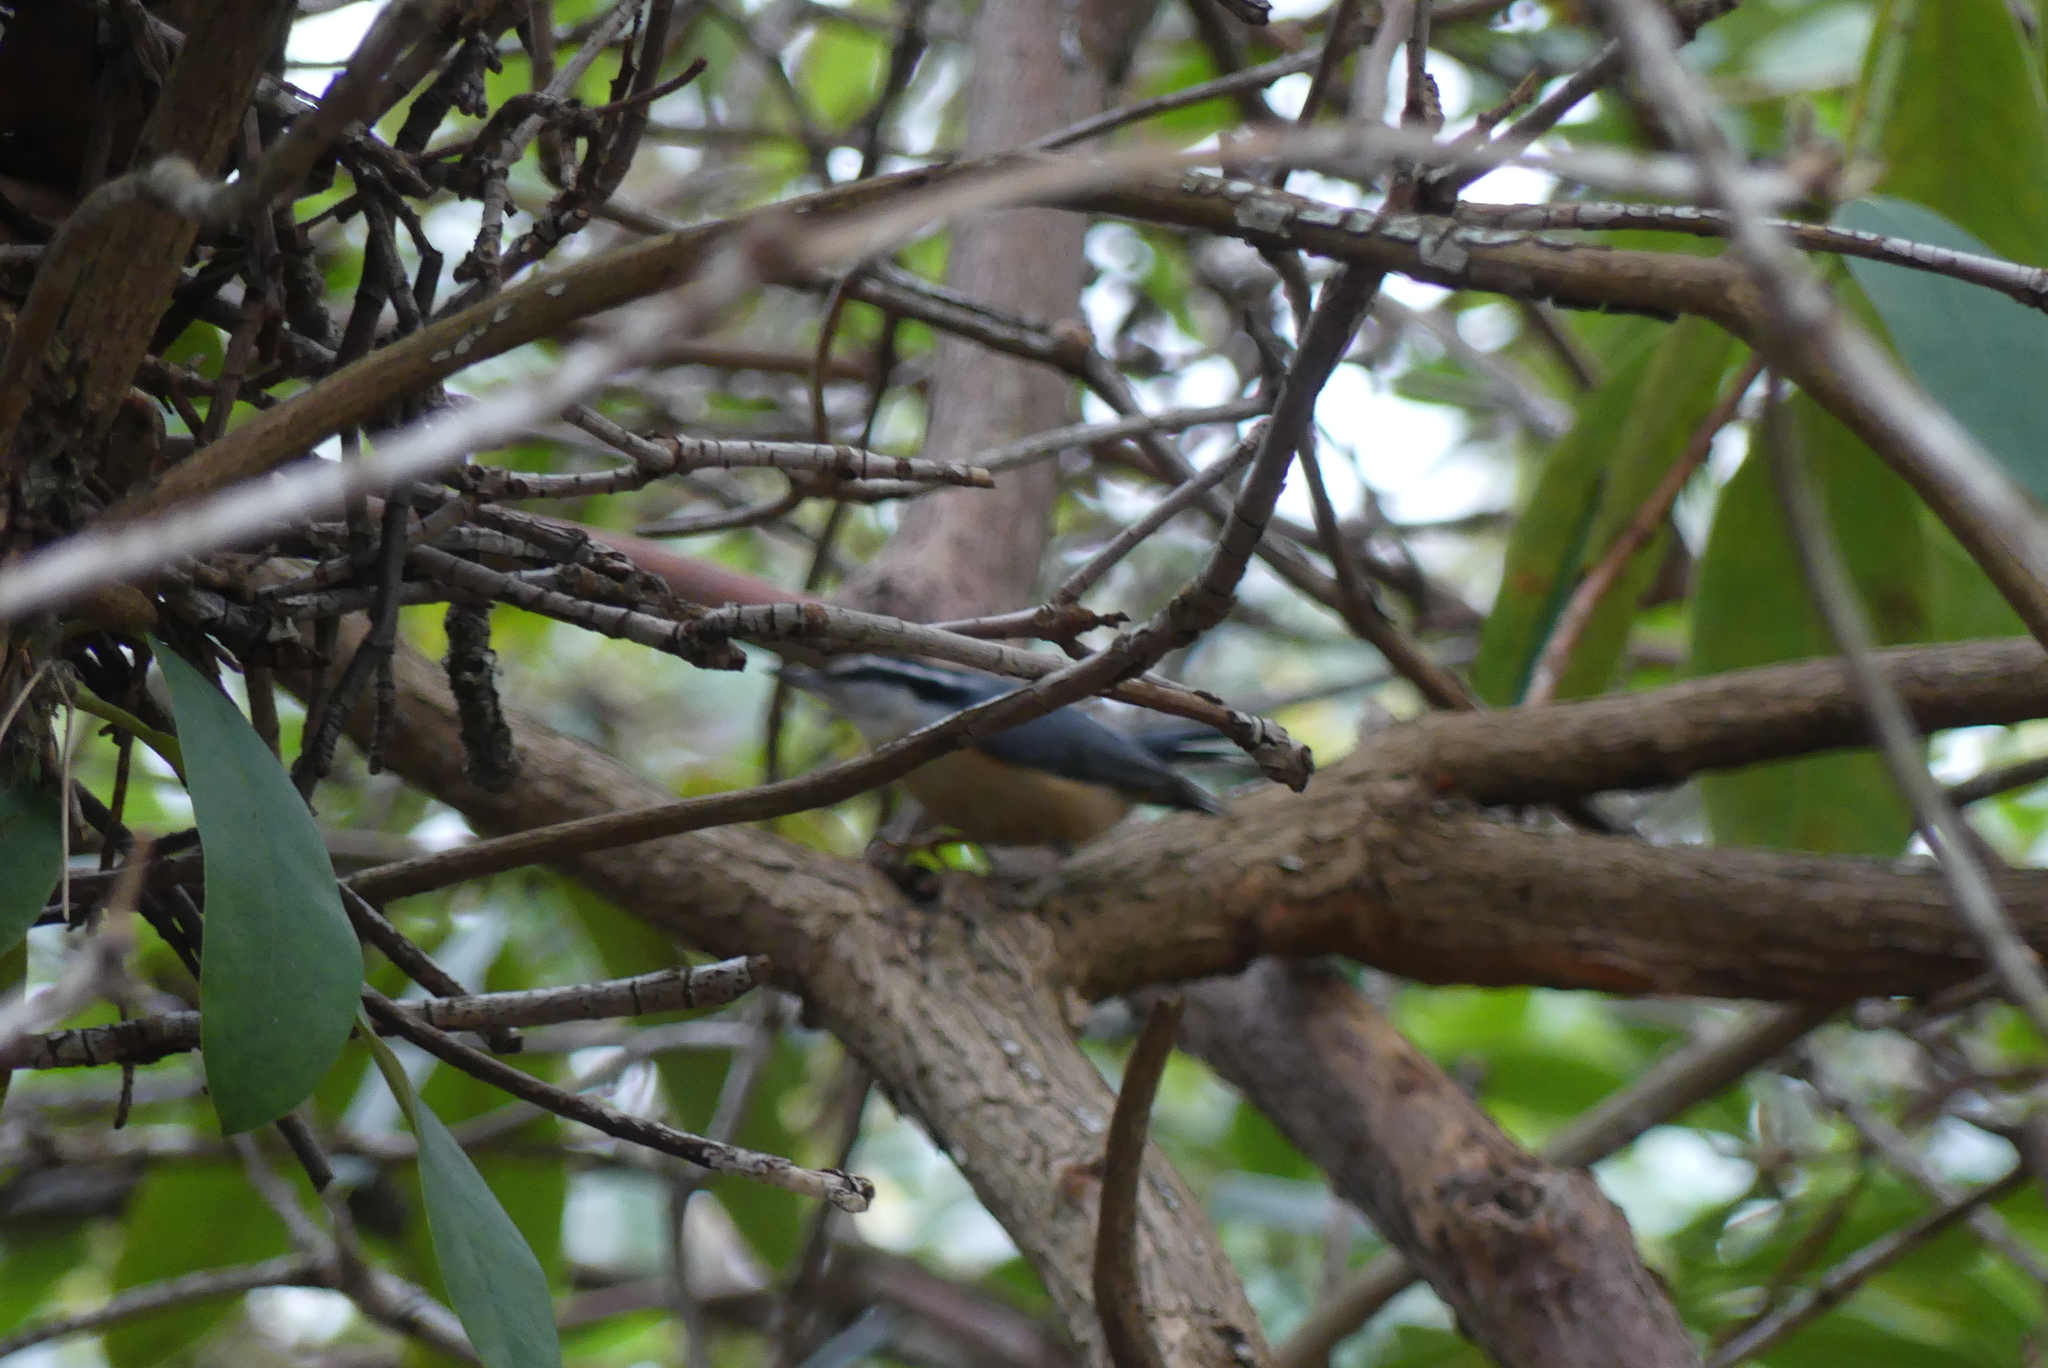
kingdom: Animalia
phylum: Chordata
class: Aves
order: Passeriformes
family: Sittidae
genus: Sitta
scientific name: Sitta canadensis
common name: Red-breasted nuthatch
